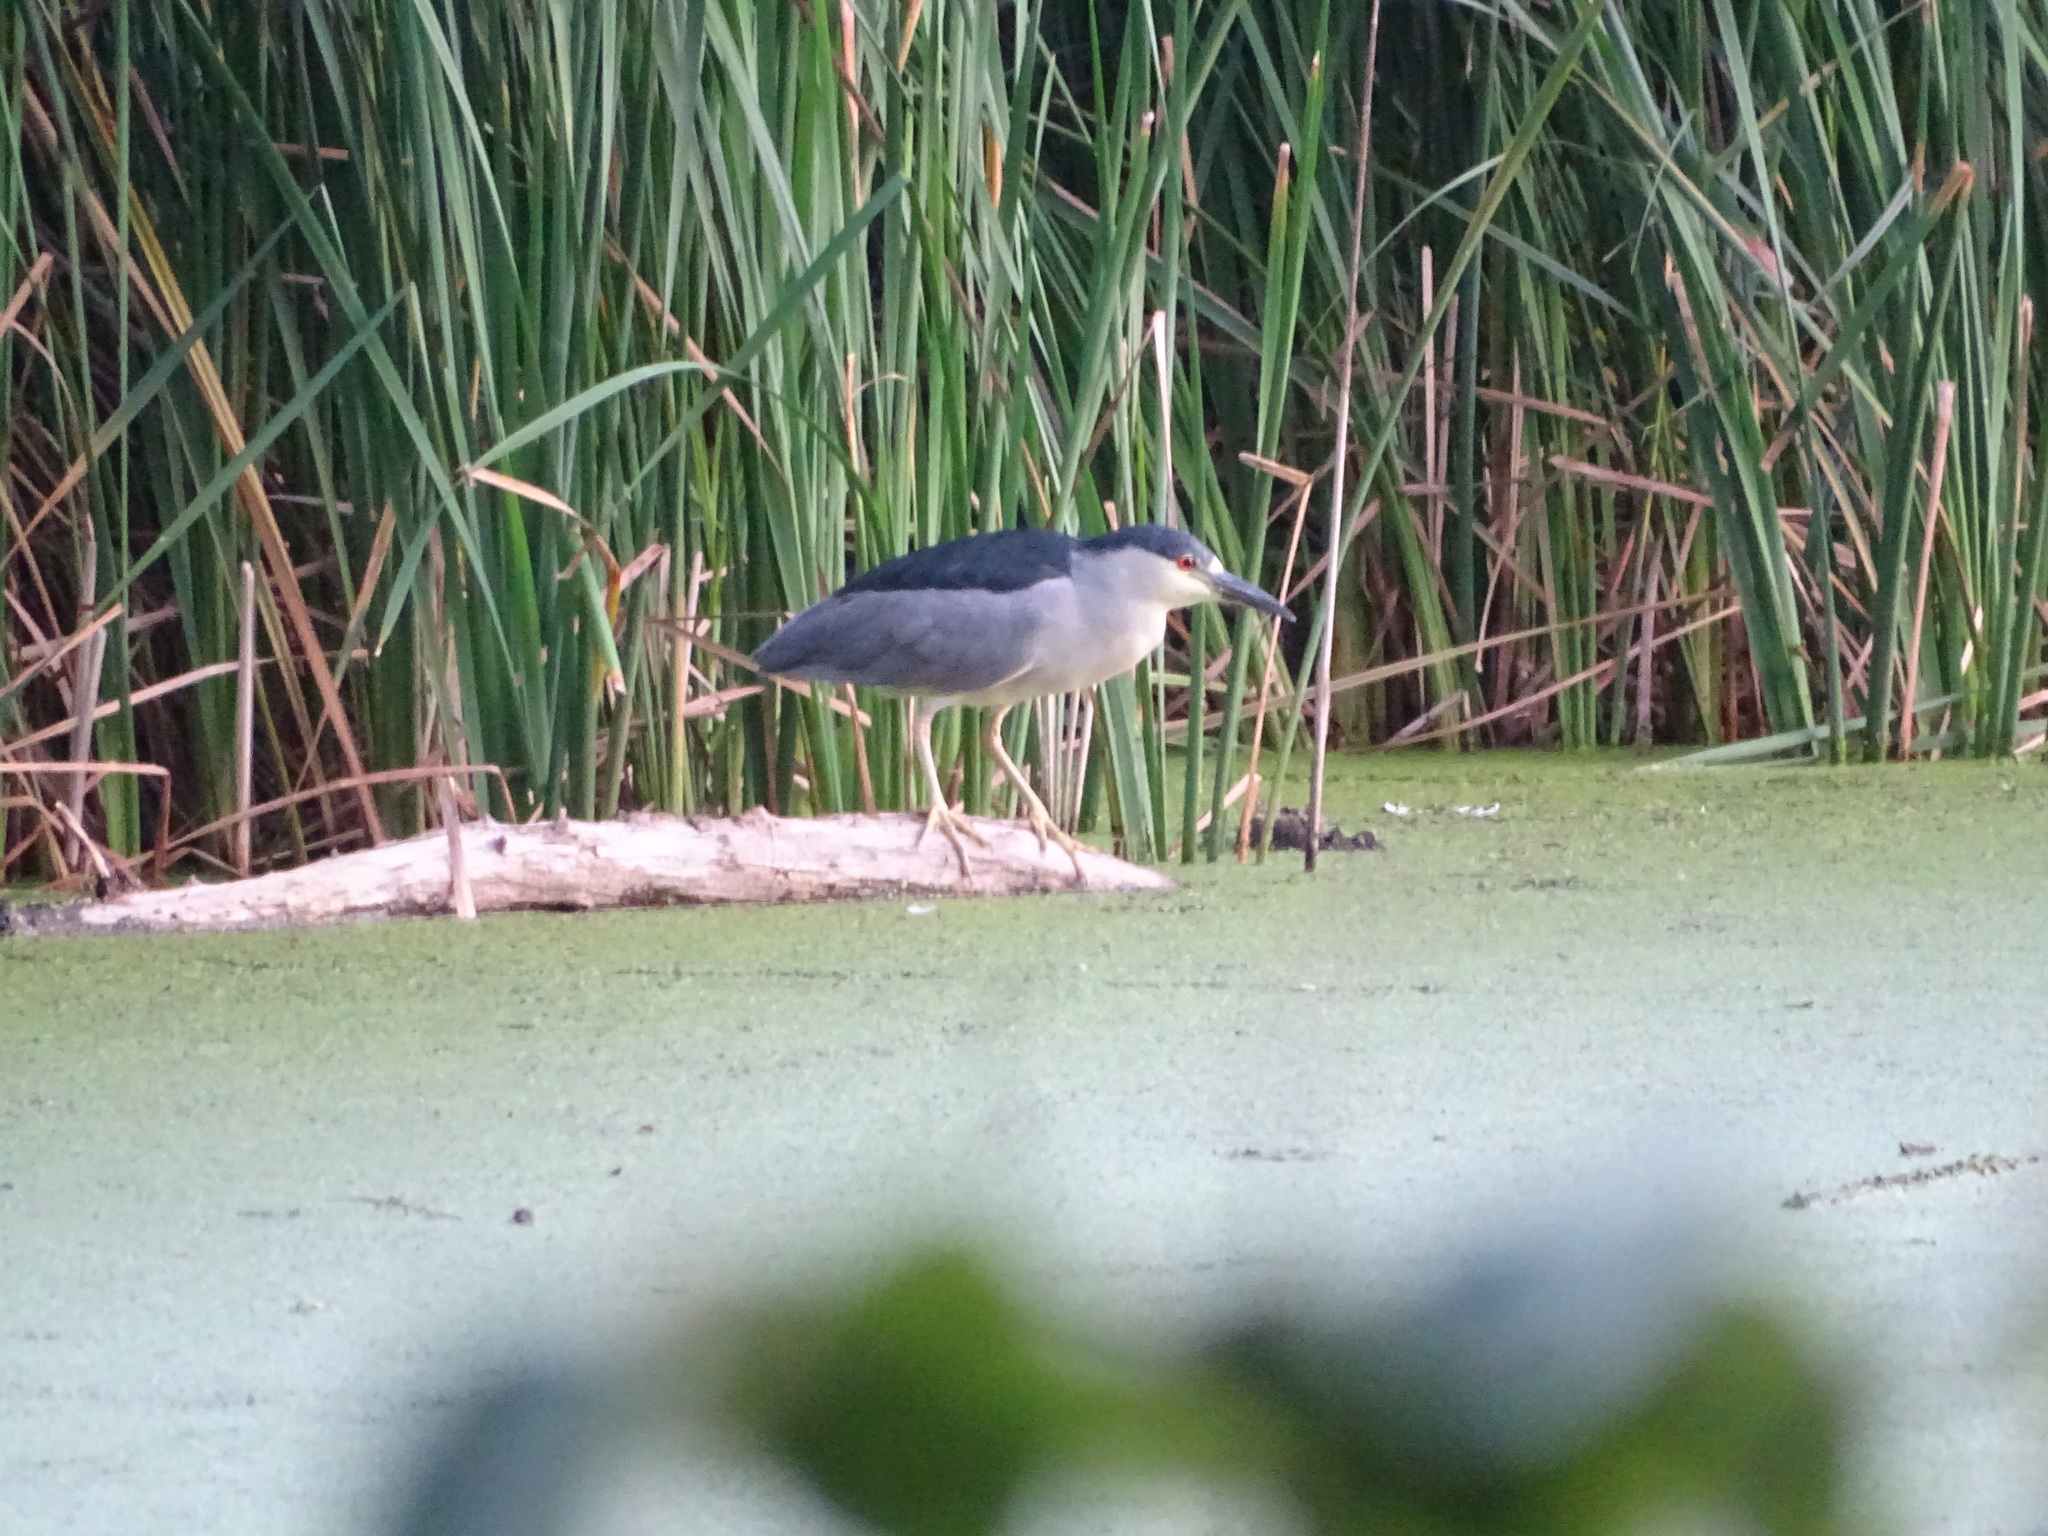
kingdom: Animalia
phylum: Chordata
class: Aves
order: Pelecaniformes
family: Ardeidae
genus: Nycticorax
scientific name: Nycticorax nycticorax
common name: Black-crowned night heron
